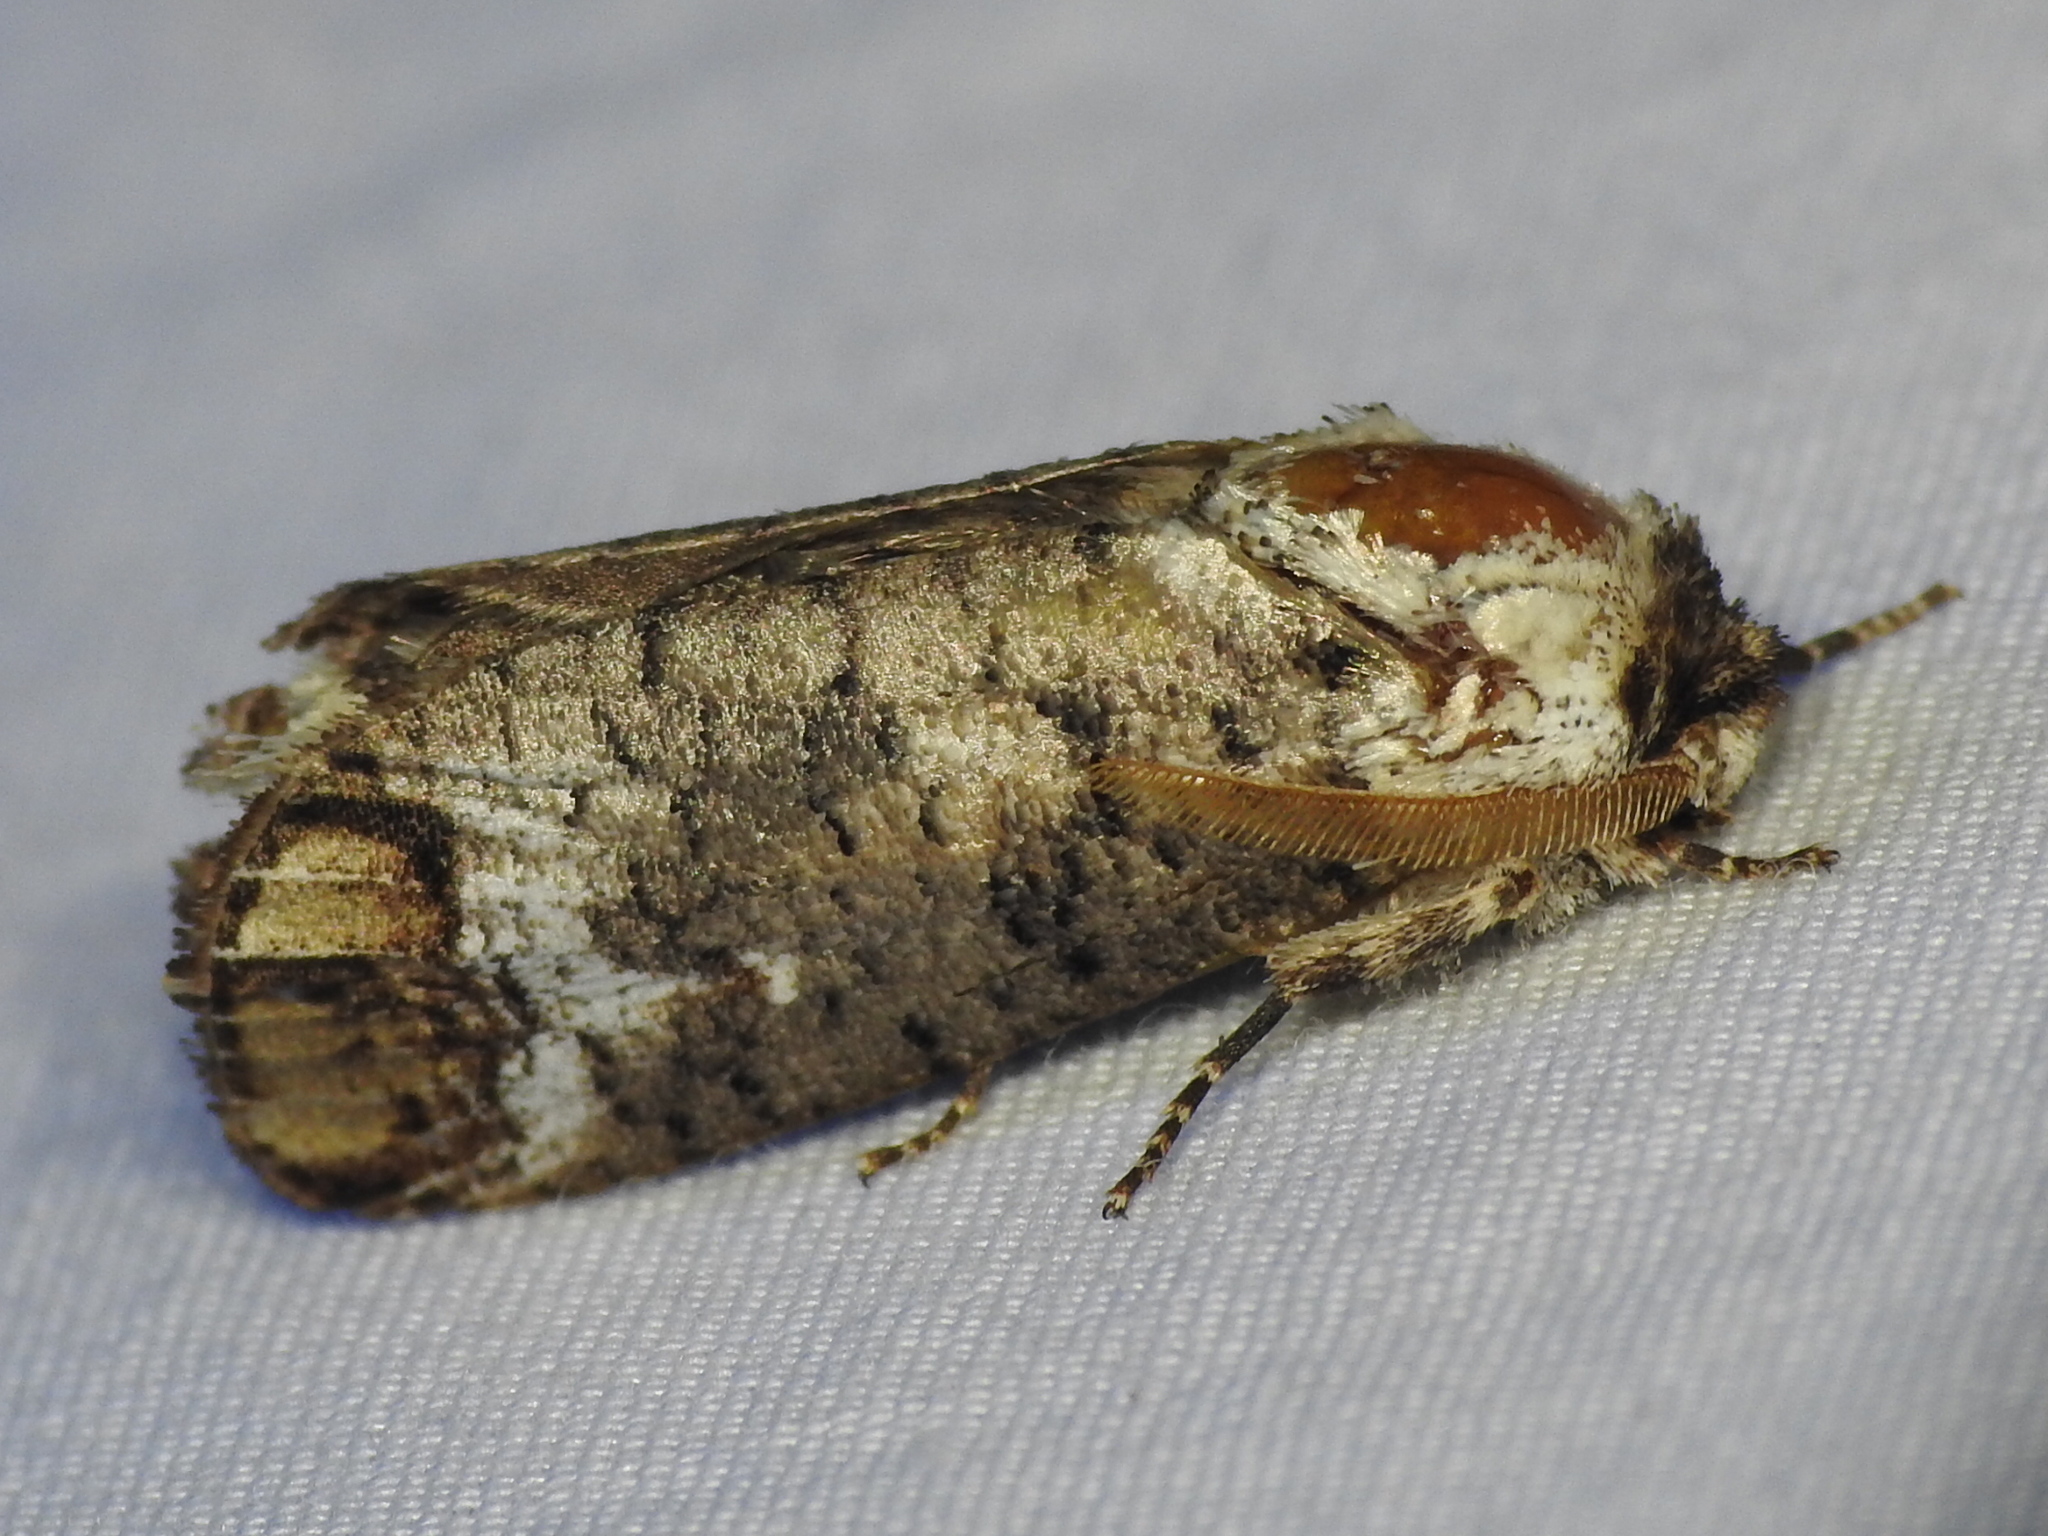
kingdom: Animalia
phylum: Arthropoda
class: Insecta
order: Lepidoptera
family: Cossidae
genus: Cossula
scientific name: Cossula magnifica
